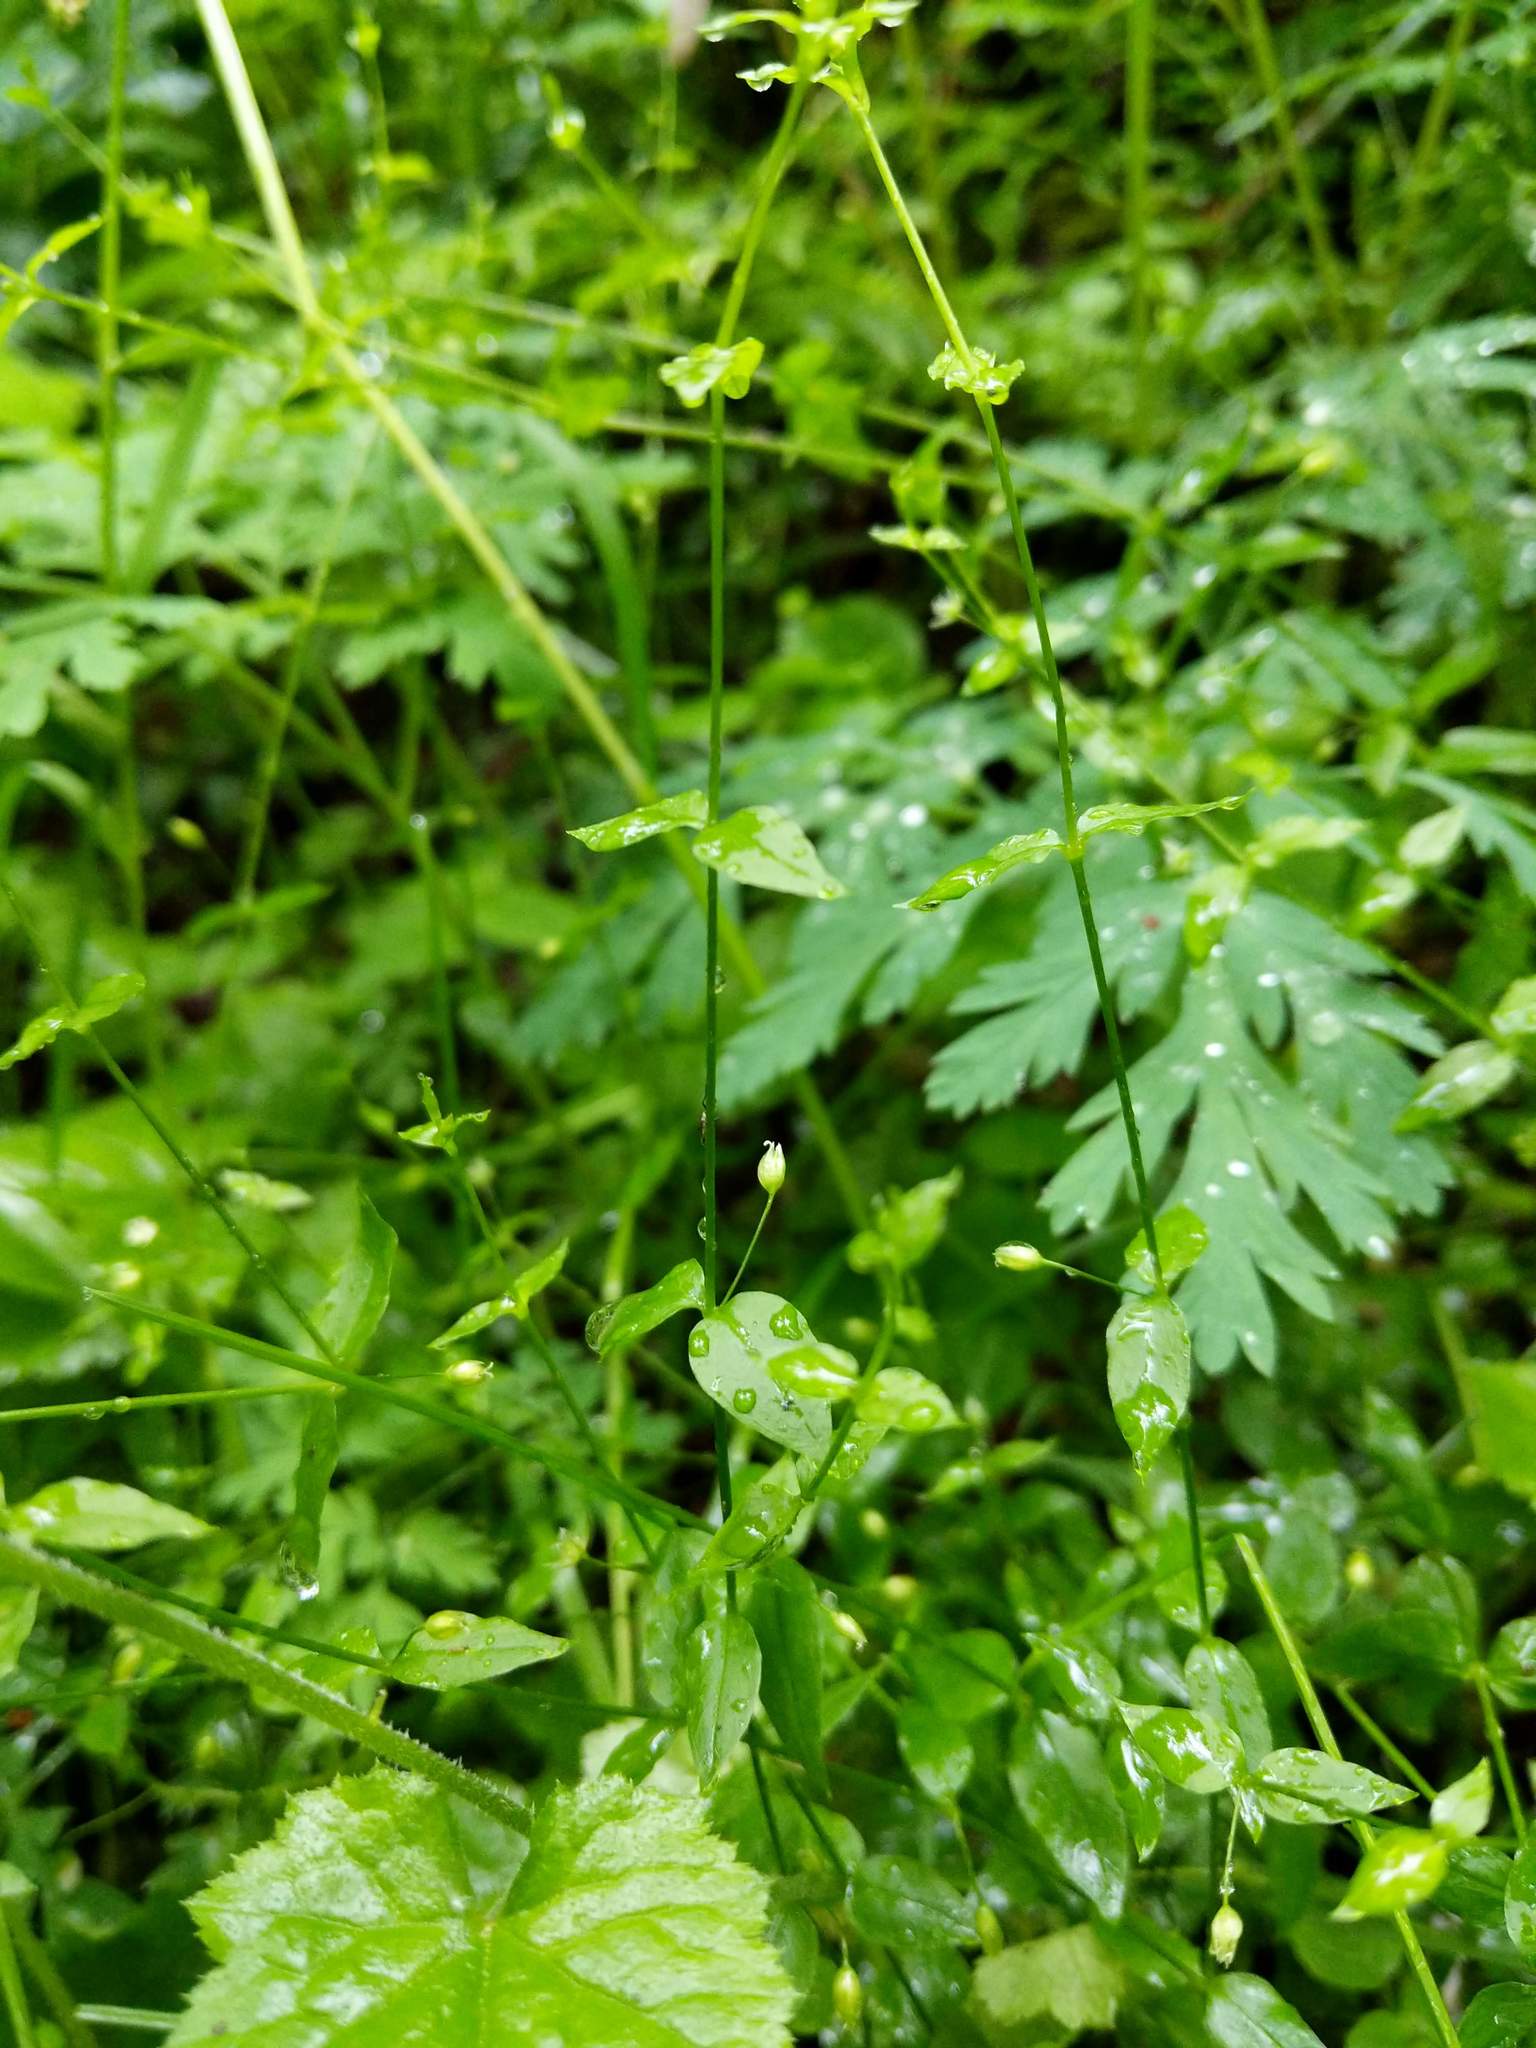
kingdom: Plantae
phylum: Tracheophyta
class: Magnoliopsida
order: Caryophyllales
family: Caryophyllaceae
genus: Stellaria
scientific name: Stellaria crispa
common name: Crimped stitchwort
